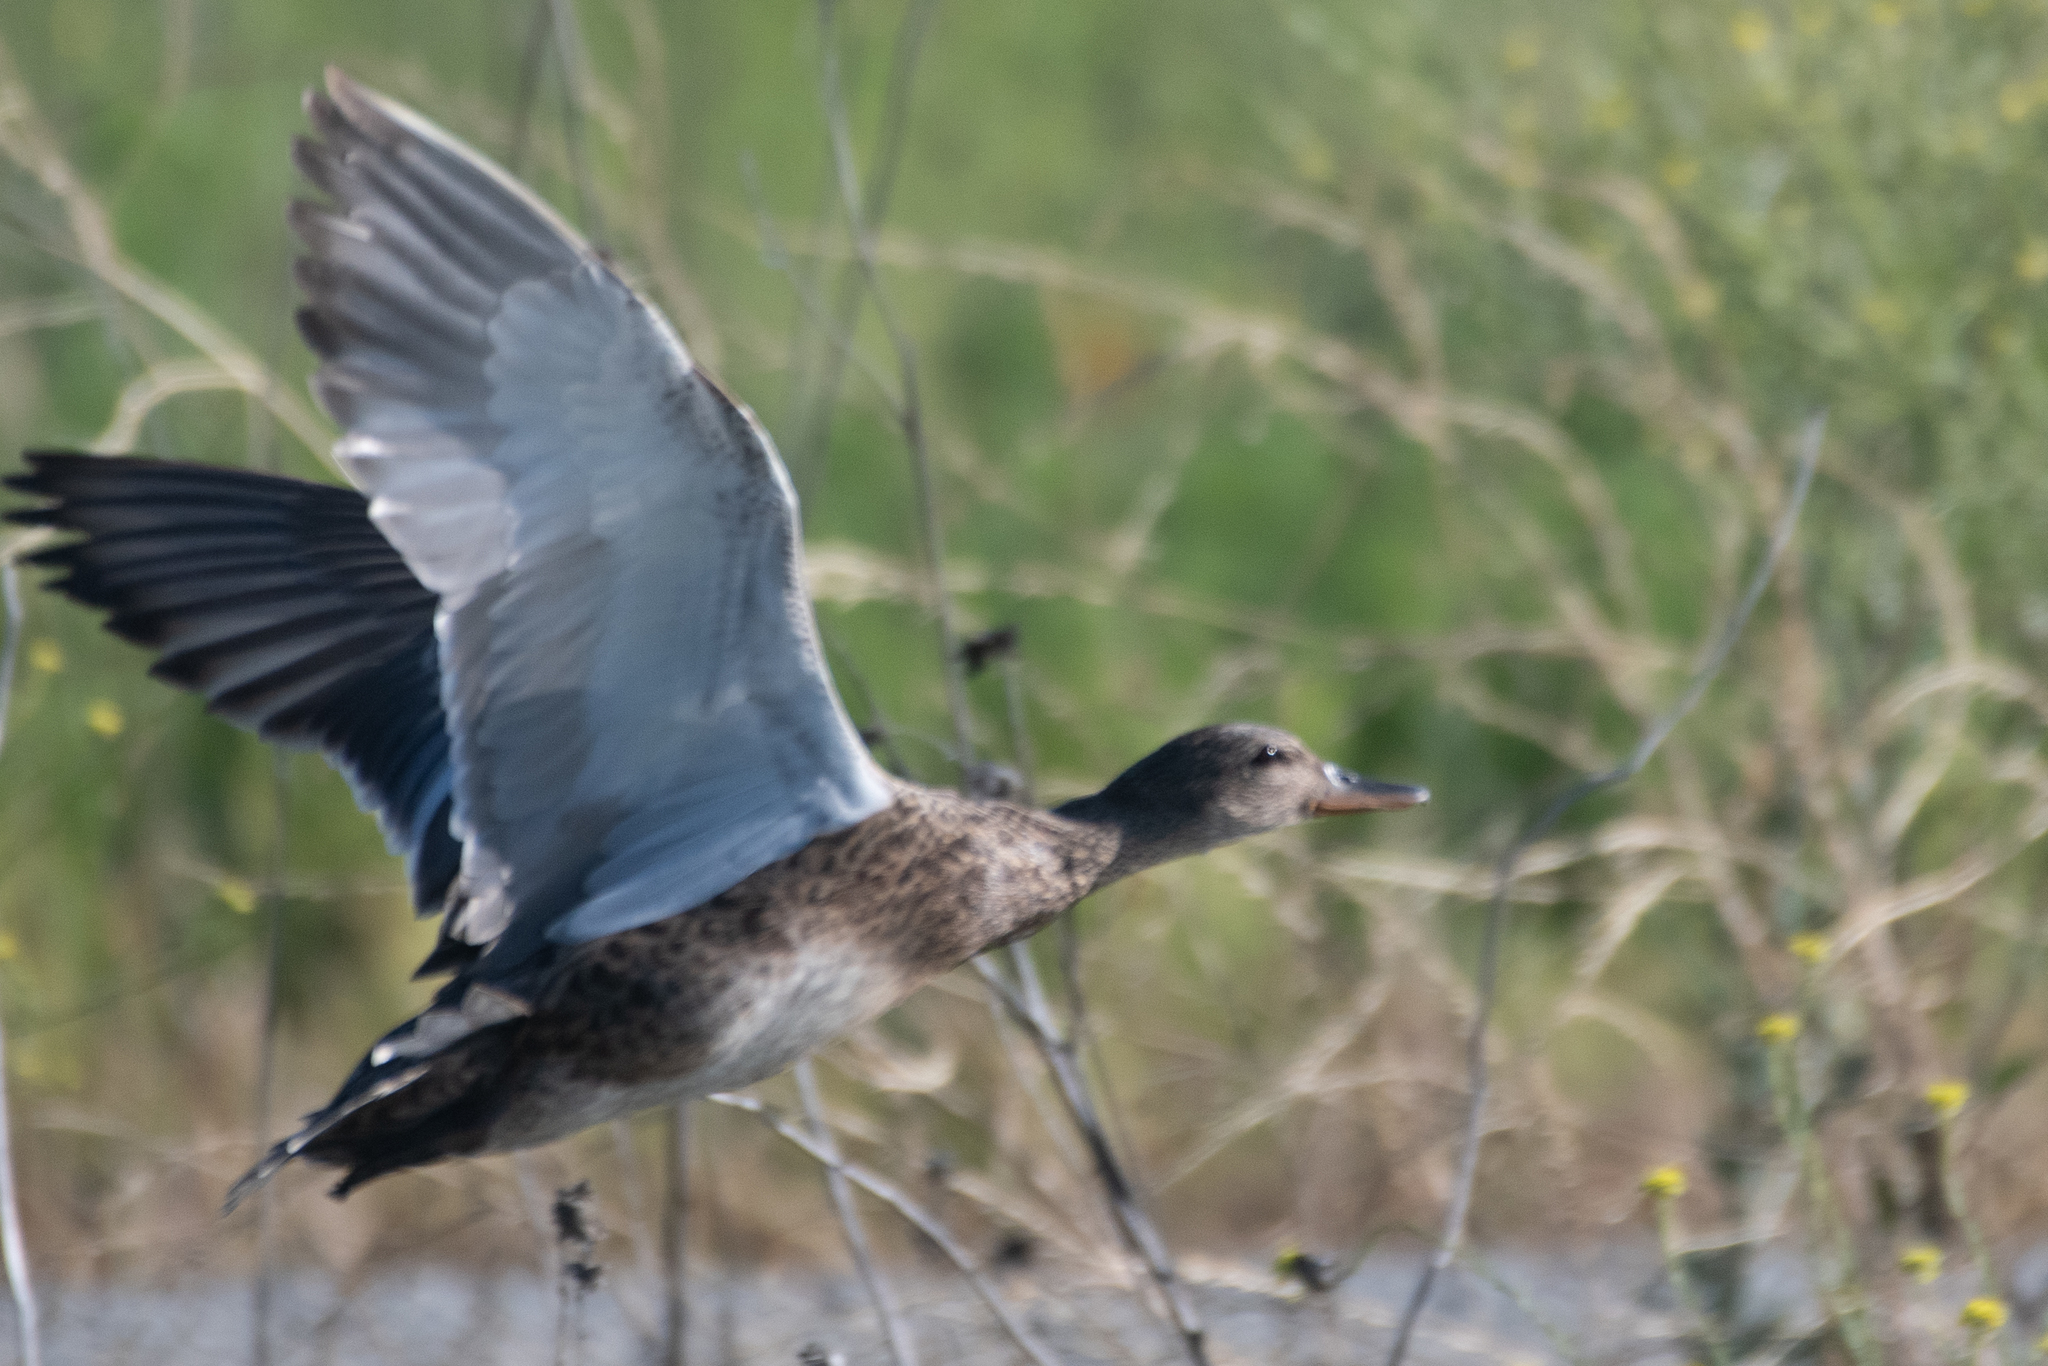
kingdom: Animalia
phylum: Chordata
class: Aves
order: Anseriformes
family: Anatidae
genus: Anas
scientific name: Anas platyrhynchos
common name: Mallard
